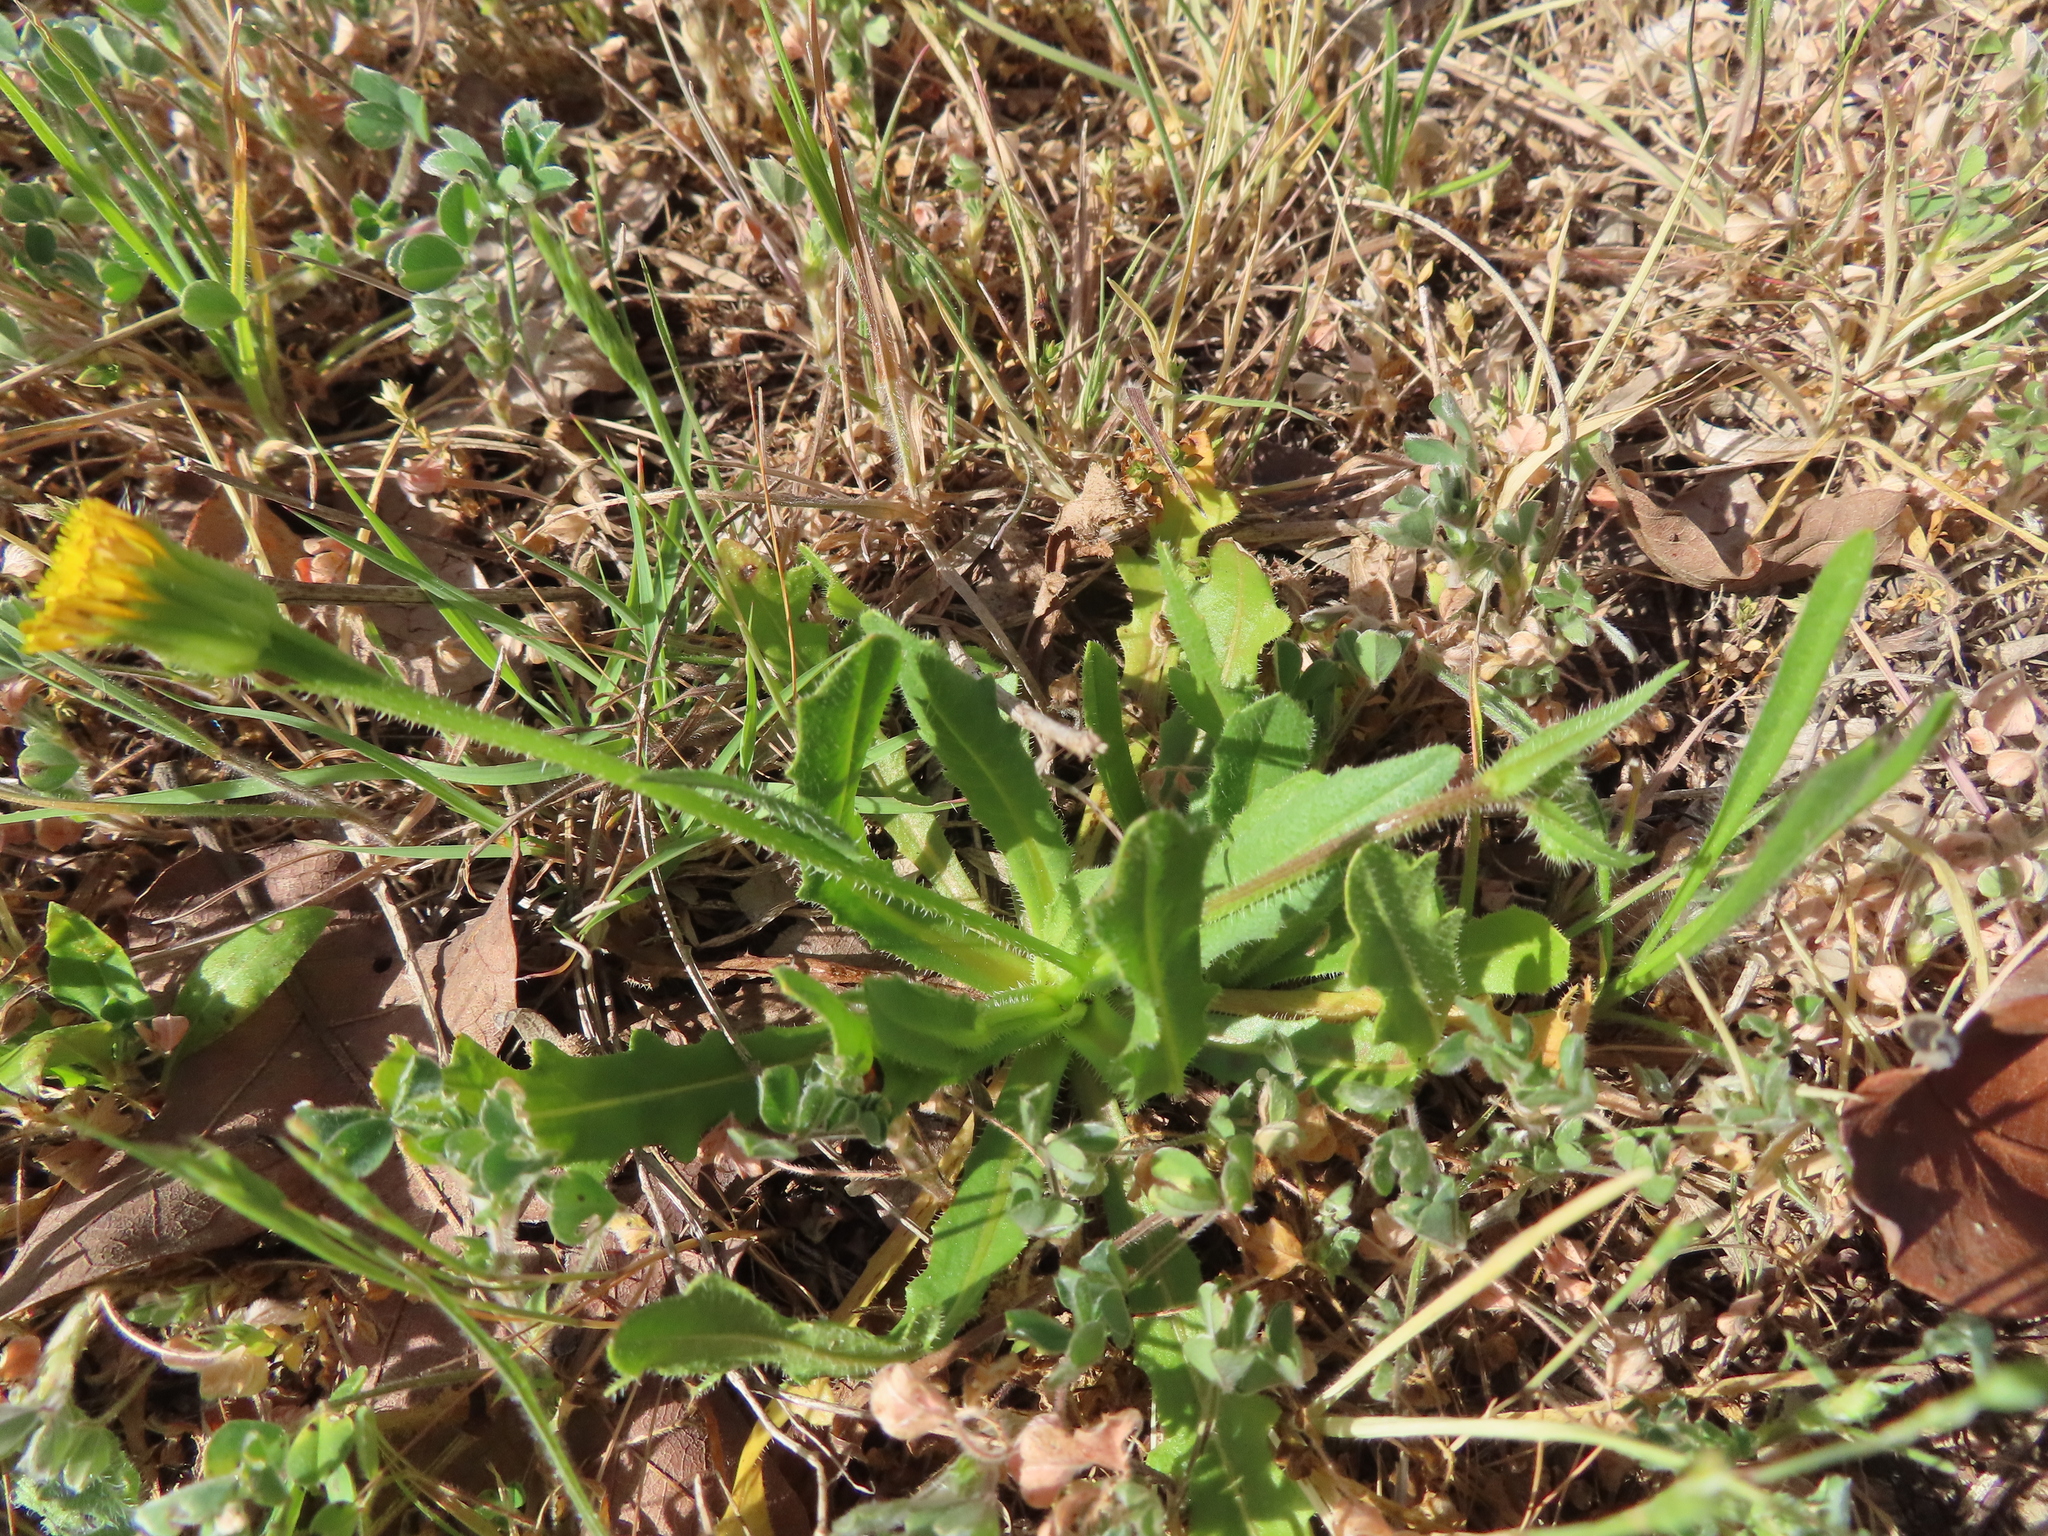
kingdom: Plantae
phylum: Tracheophyta
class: Magnoliopsida
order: Asterales
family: Asteraceae
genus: Hedypnois
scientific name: Hedypnois rhagadioloides
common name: Cretan weed
